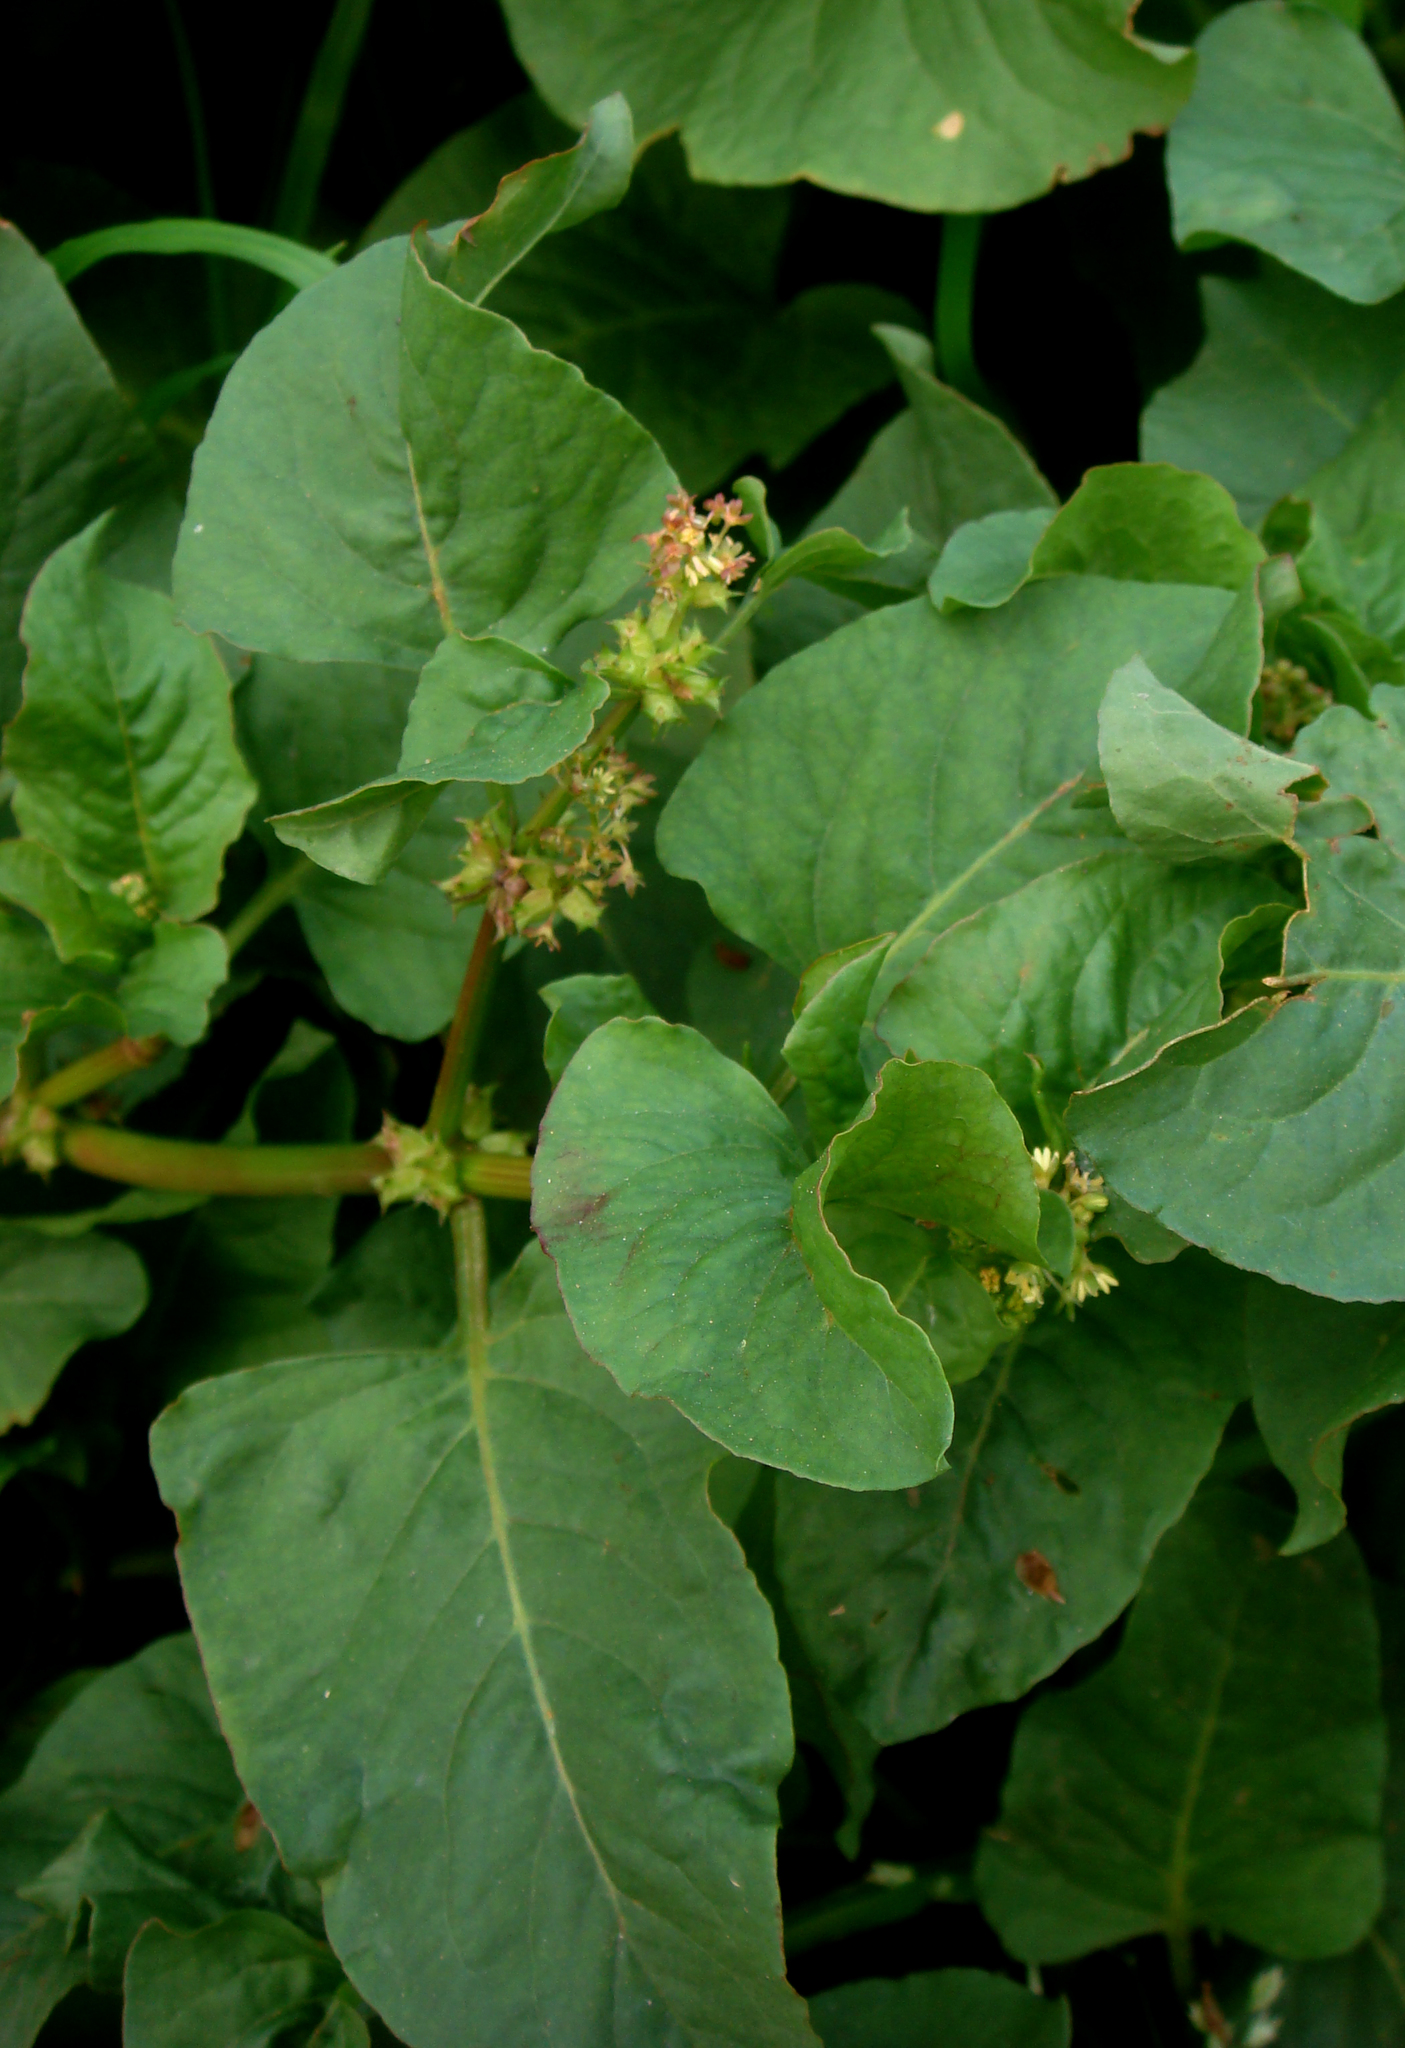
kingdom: Plantae
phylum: Tracheophyta
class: Magnoliopsida
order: Caryophyllales
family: Polygonaceae
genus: Rumex
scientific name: Rumex spinosus
